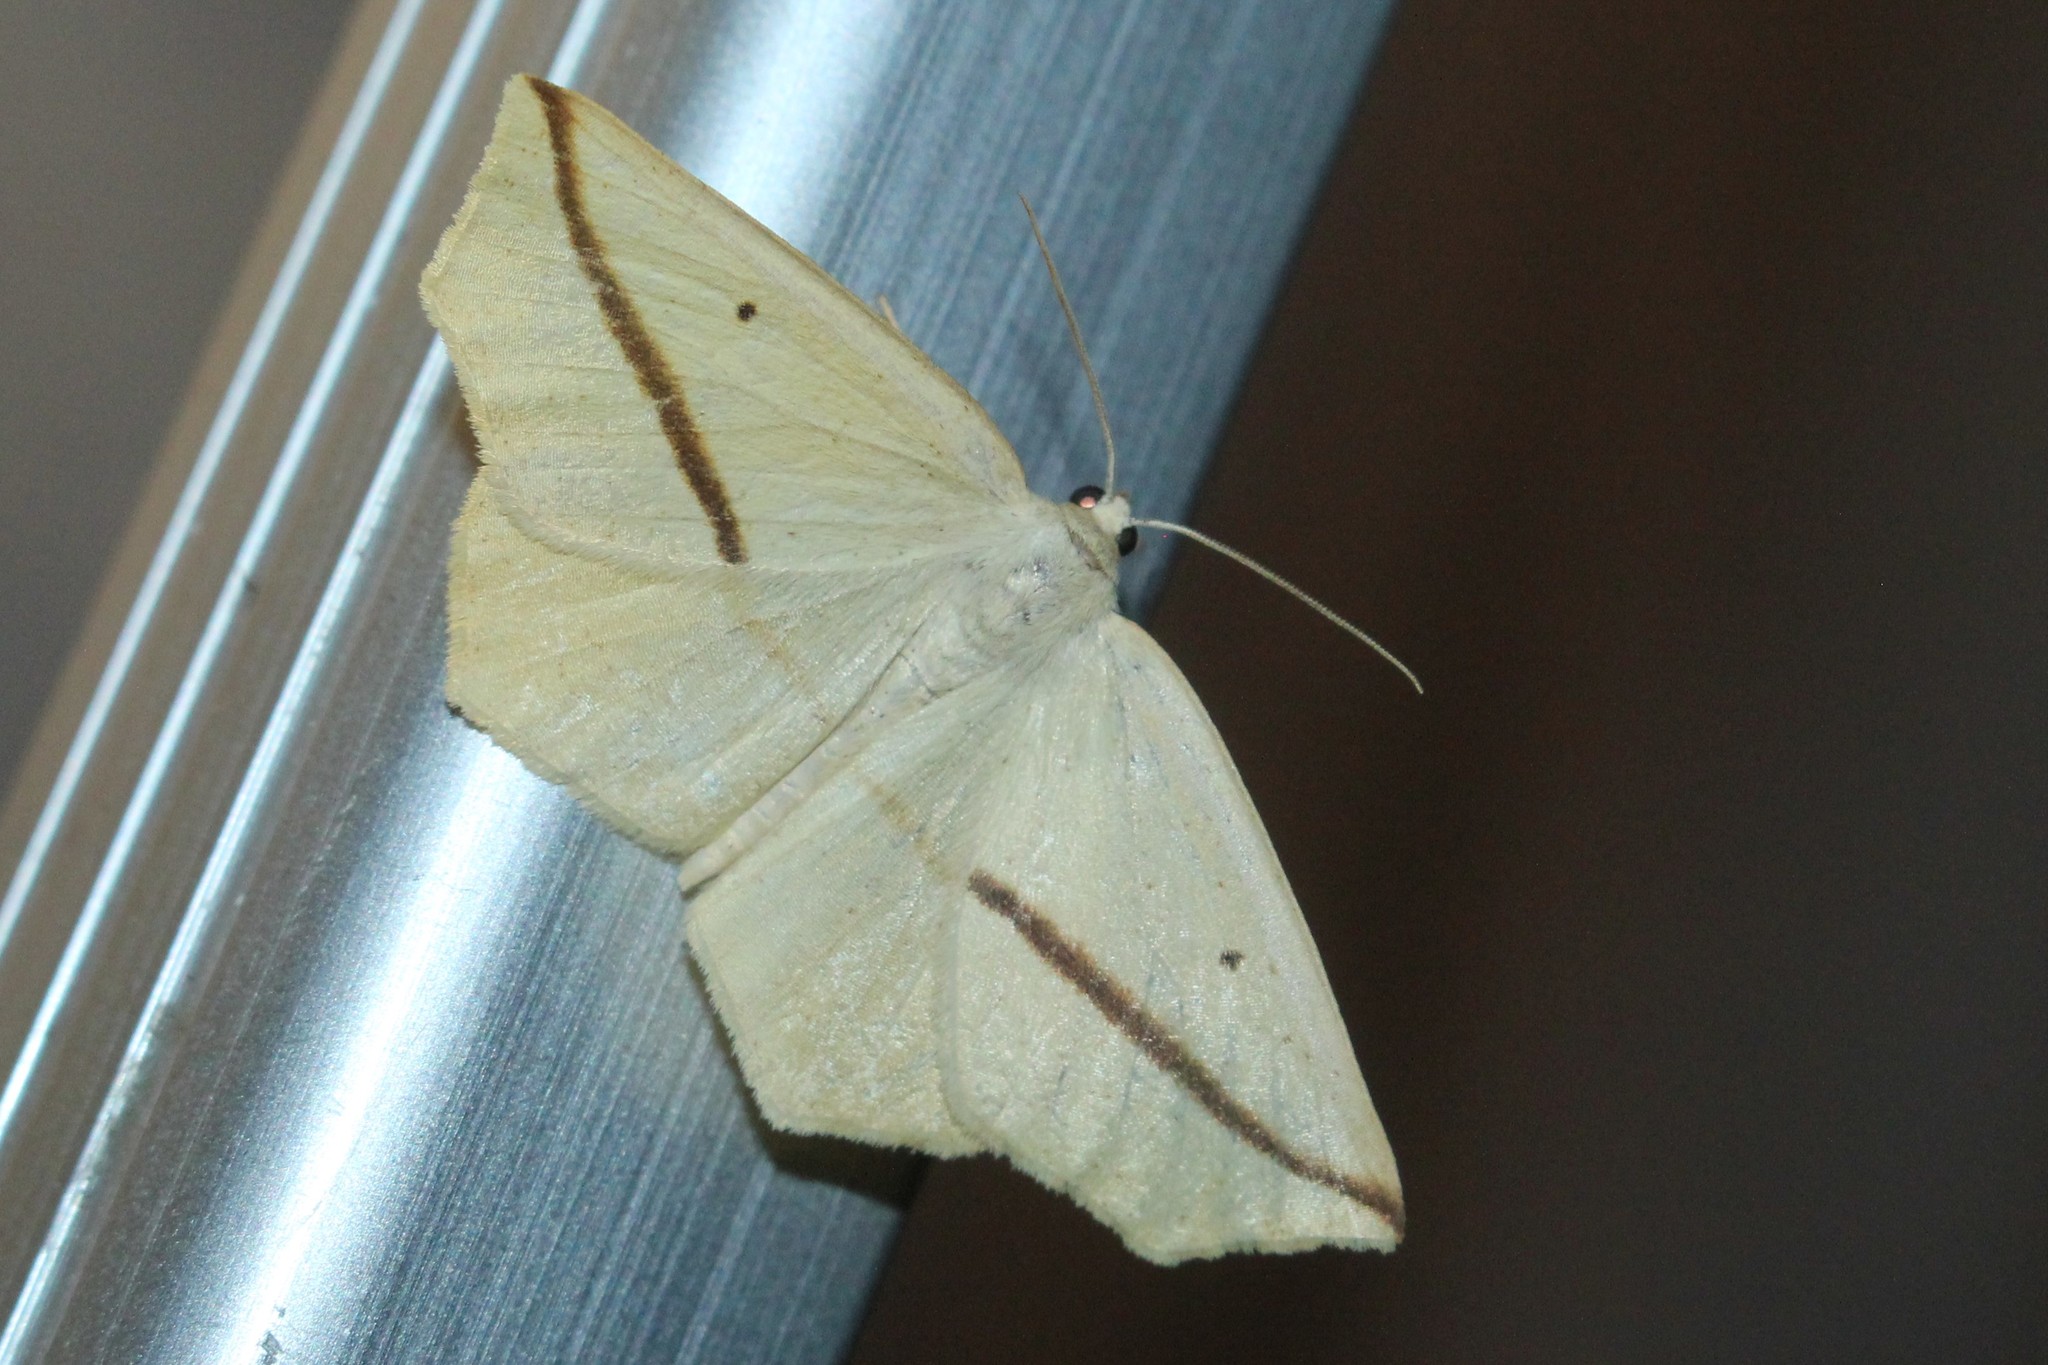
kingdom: Animalia
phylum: Arthropoda
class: Insecta
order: Lepidoptera
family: Geometridae
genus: Tetracis
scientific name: Tetracis crocallata
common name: Yellow slant-line
